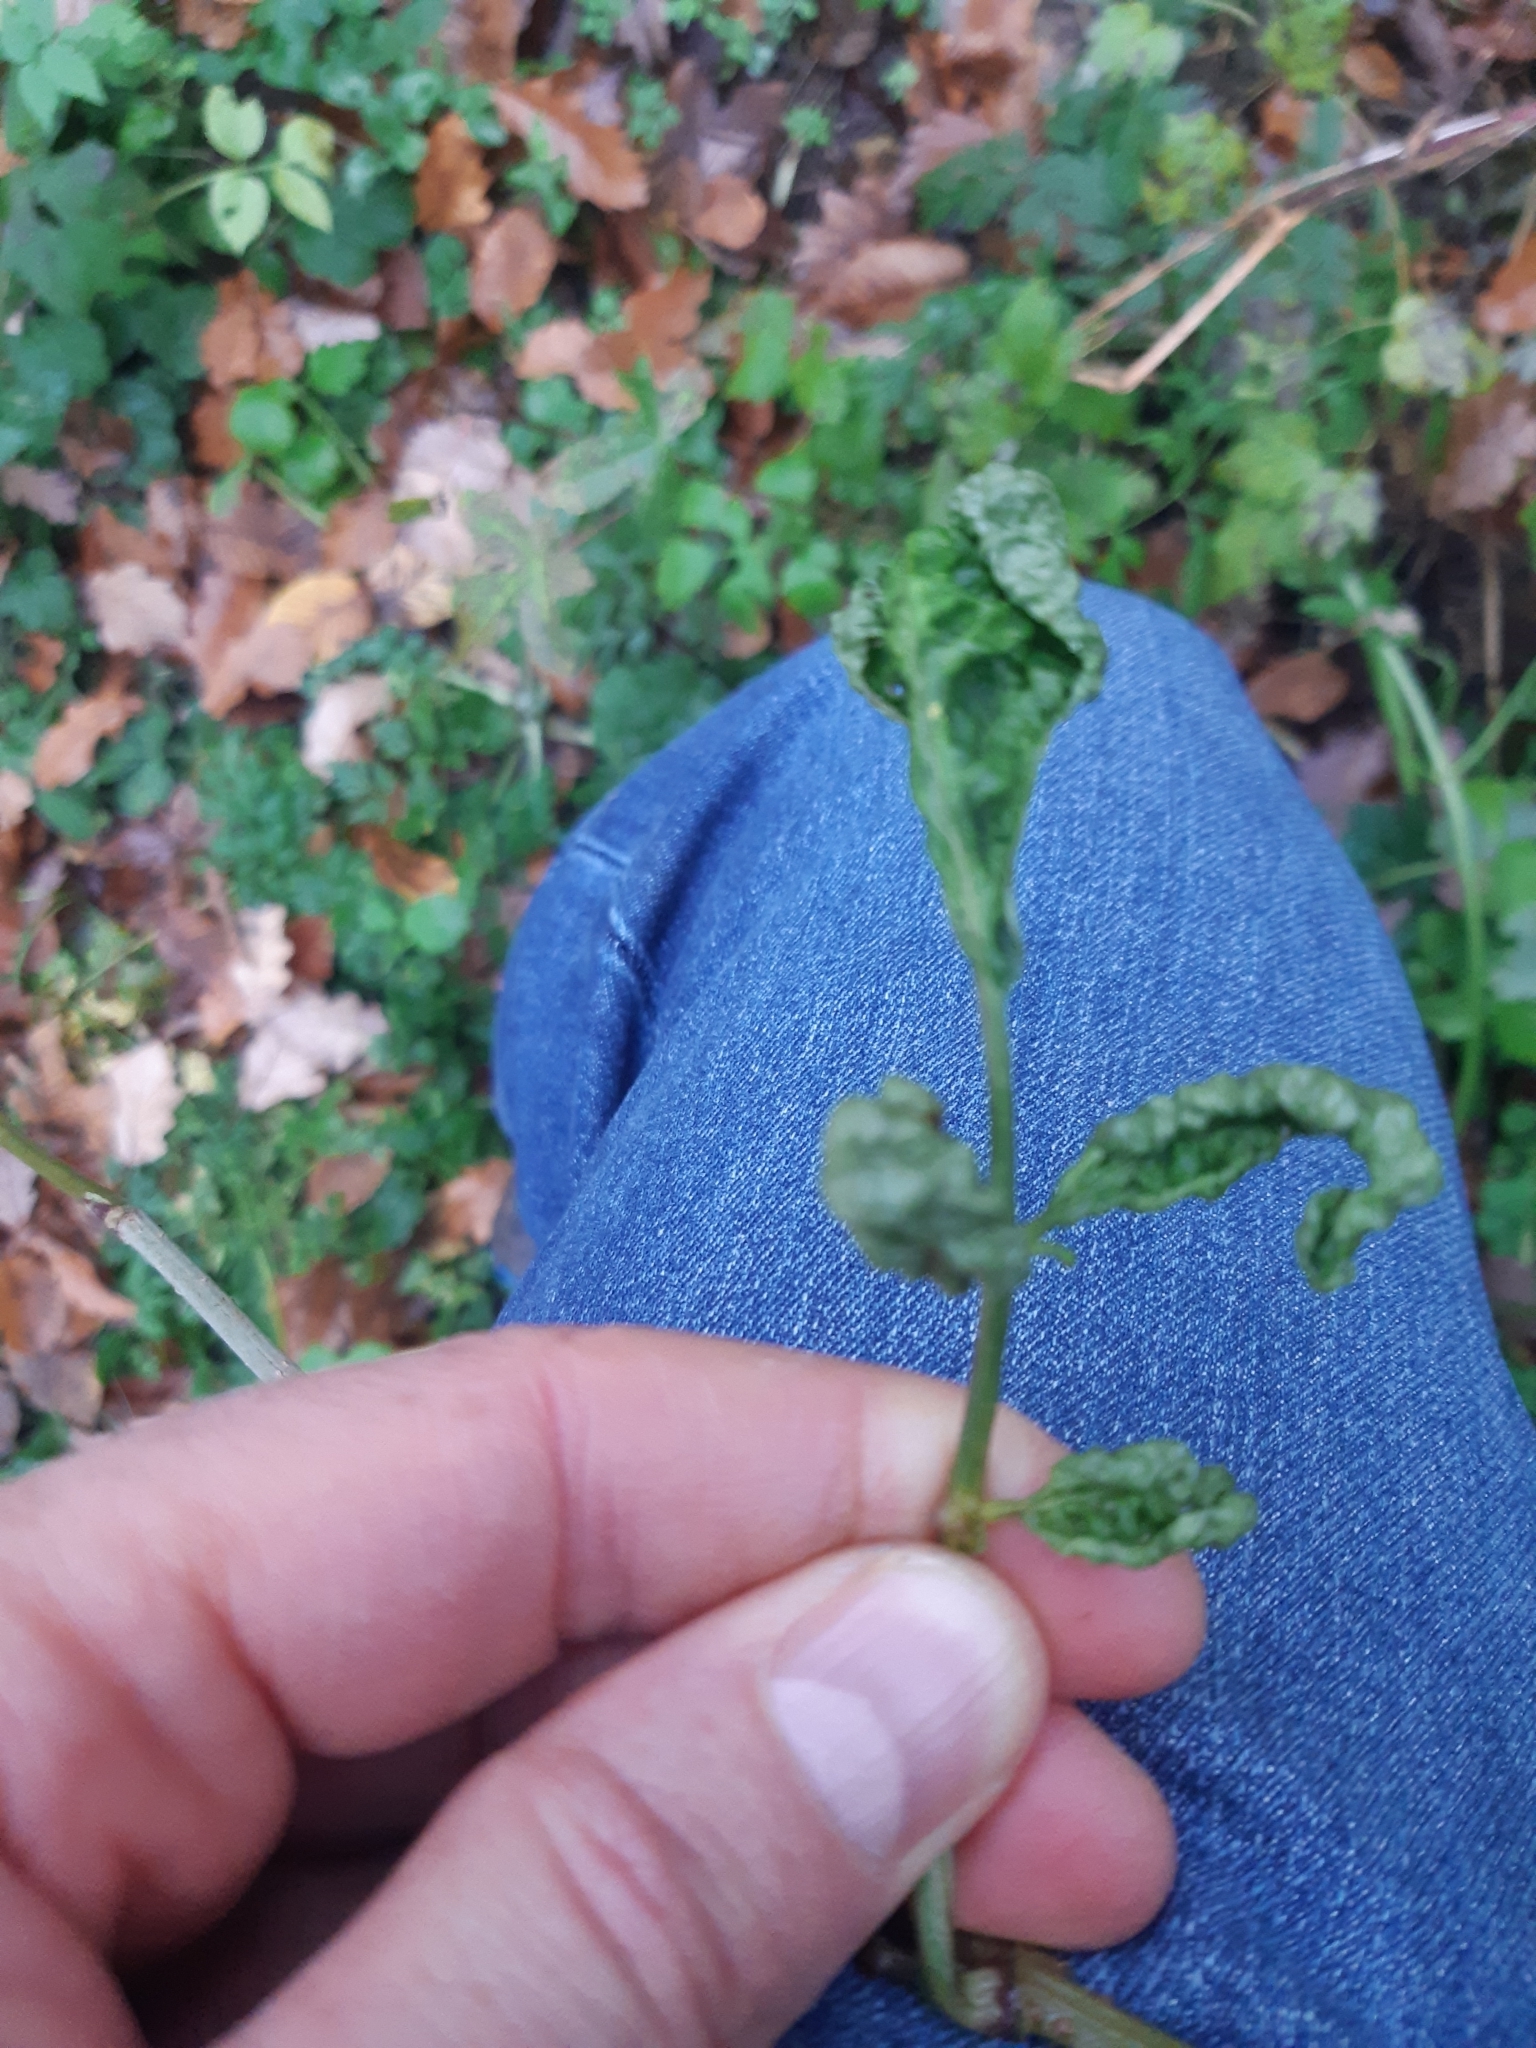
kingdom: Animalia
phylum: Arthropoda
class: Arachnida
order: Trombidiformes
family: Eriophyidae
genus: Epitrimerus
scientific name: Epitrimerus trilobus
